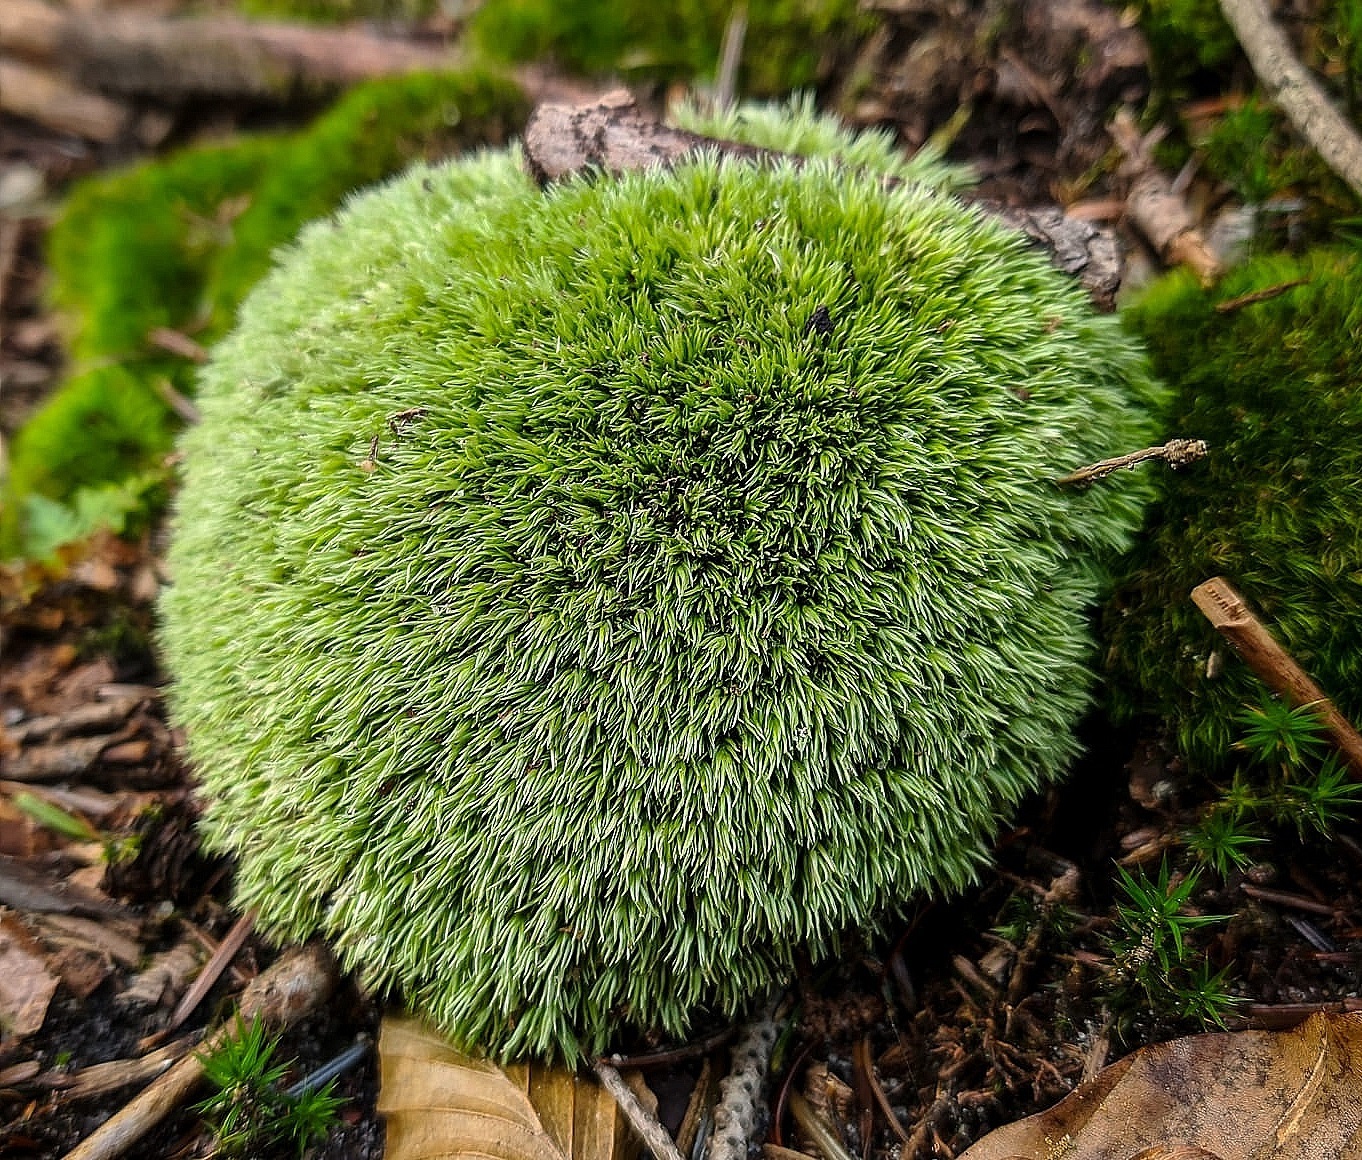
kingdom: Plantae
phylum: Bryophyta
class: Bryopsida
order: Dicranales
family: Leucobryaceae
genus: Leucobryum
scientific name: Leucobryum glaucum
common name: Large white-moss
